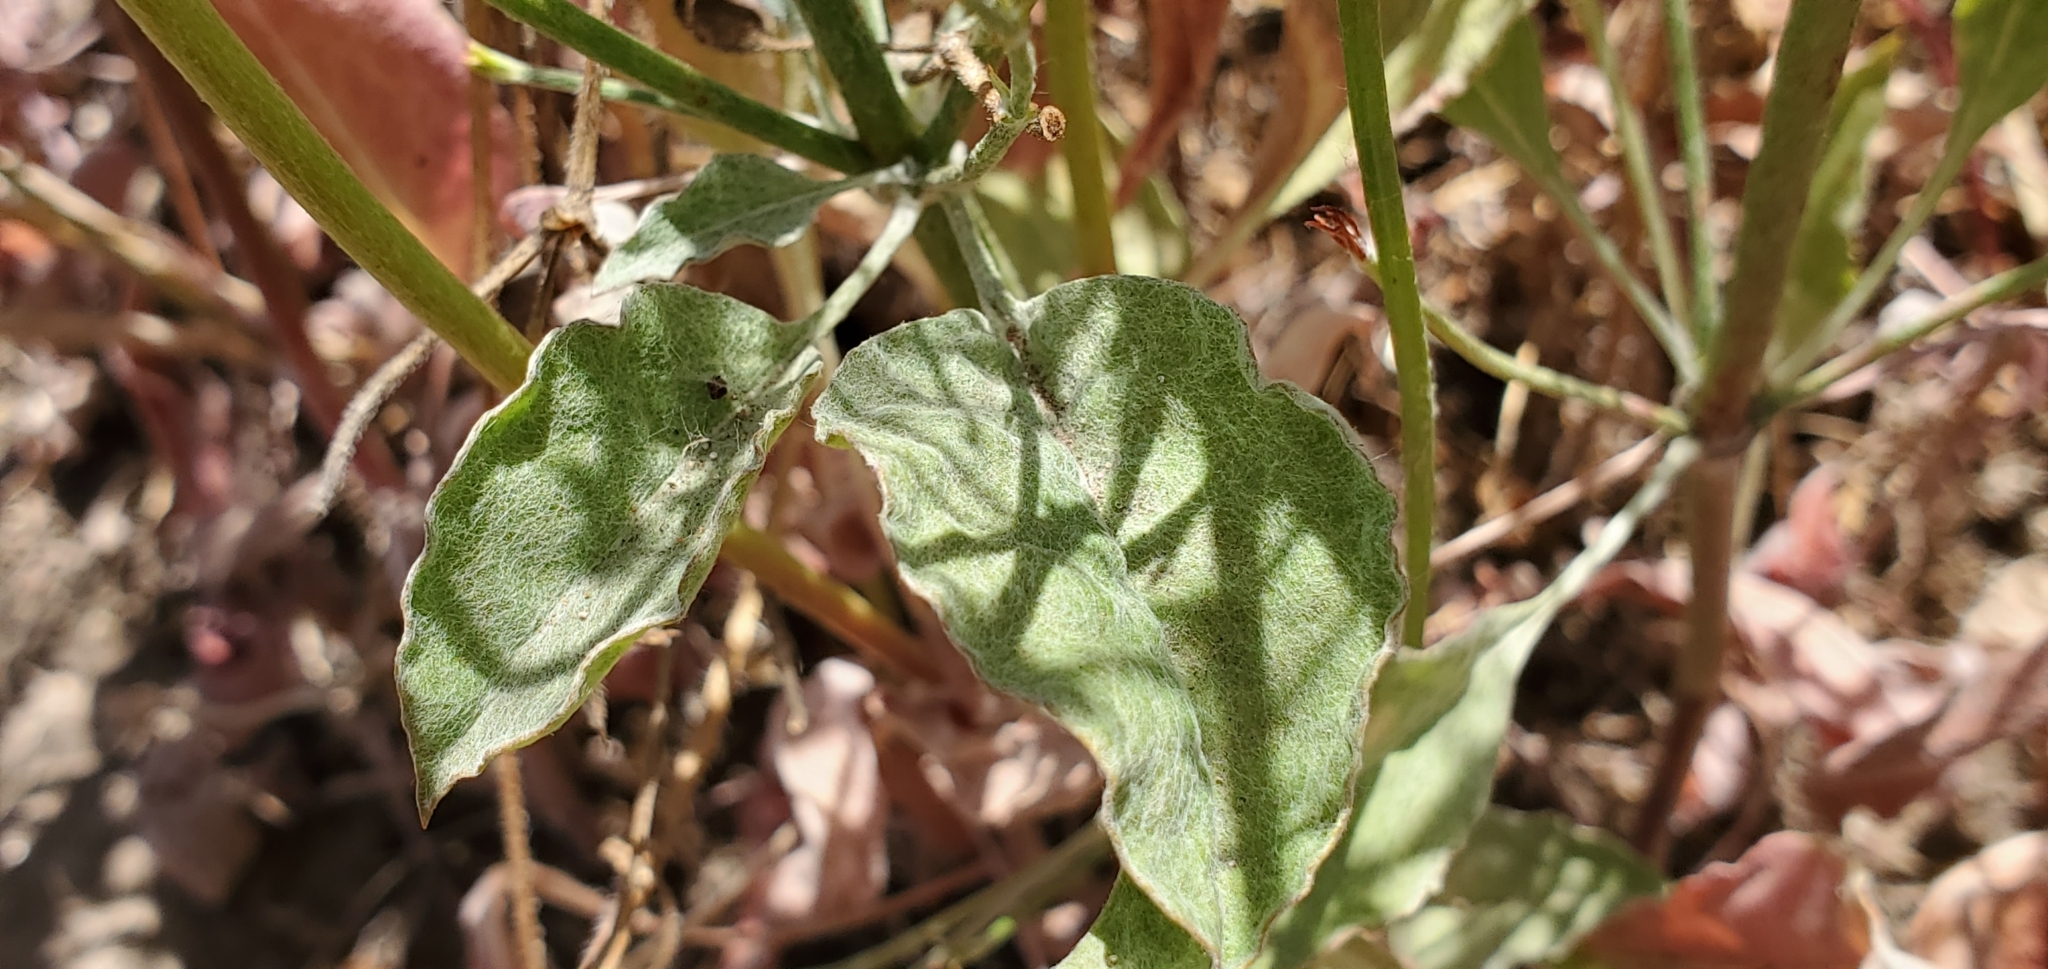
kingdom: Plantae
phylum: Tracheophyta
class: Magnoliopsida
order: Caryophyllales
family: Polygonaceae
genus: Eriogonum
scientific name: Eriogonum gracile
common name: Slender woolly buckwheat
